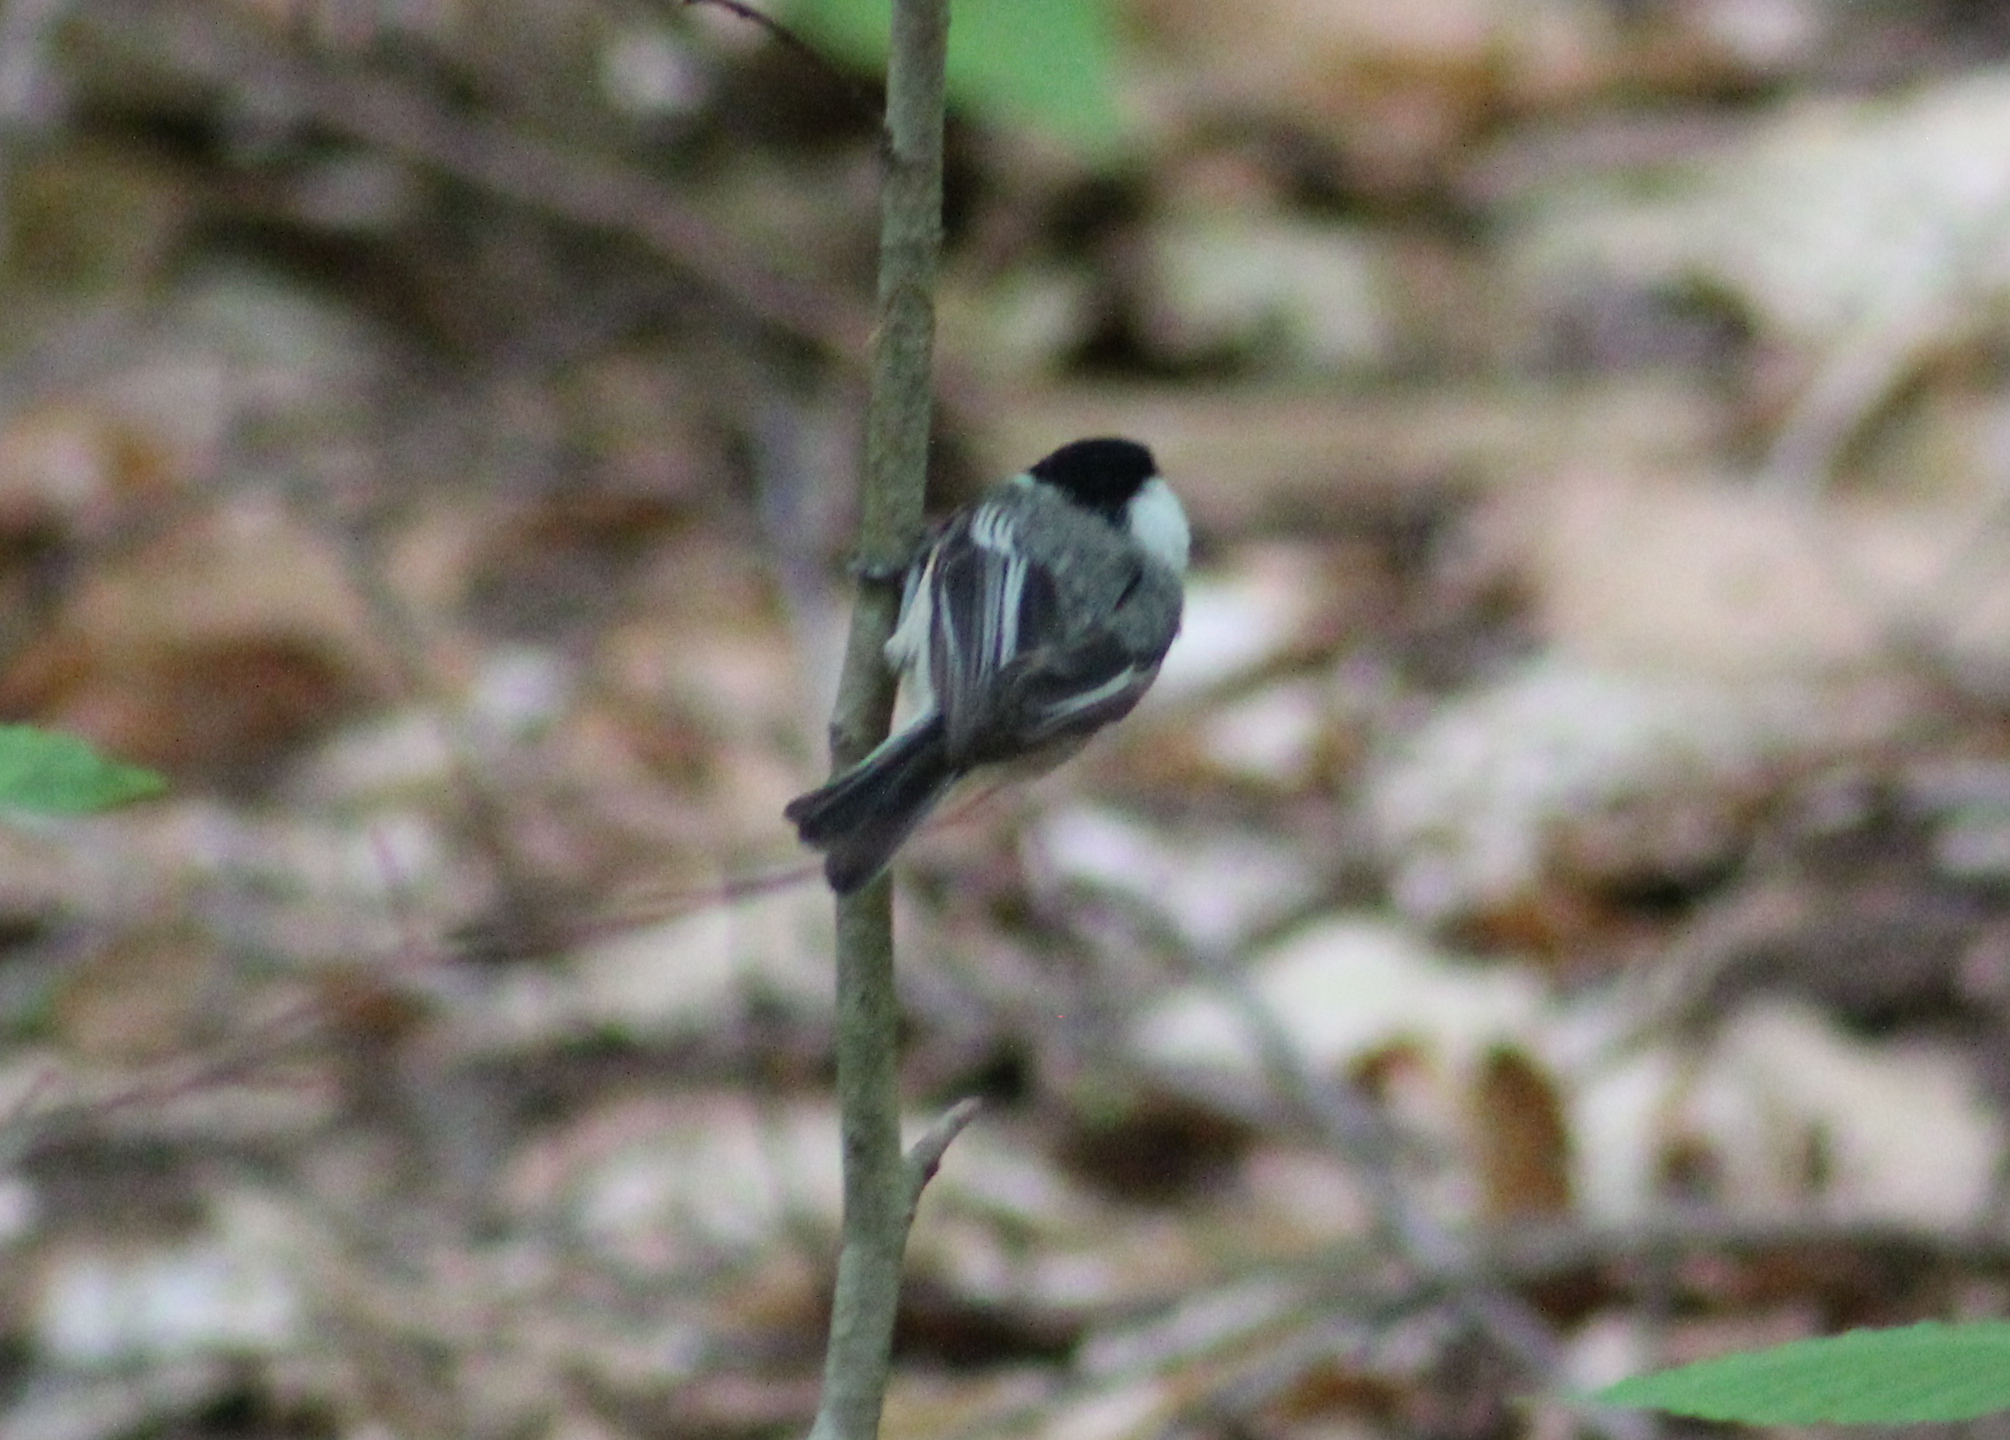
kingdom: Animalia
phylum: Chordata
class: Aves
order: Passeriformes
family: Paridae
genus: Poecile
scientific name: Poecile atricapillus
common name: Black-capped chickadee
